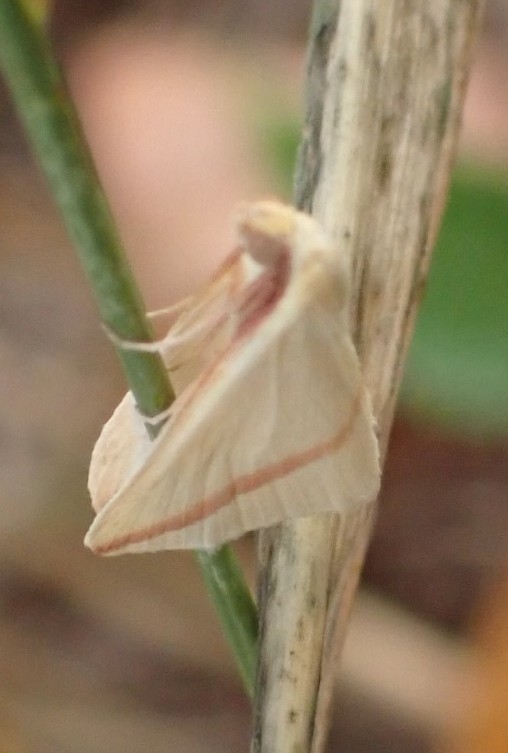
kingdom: Animalia
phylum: Arthropoda
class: Insecta
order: Lepidoptera
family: Geometridae
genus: Rhodometra
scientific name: Rhodometra sacraria
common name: Vestal
